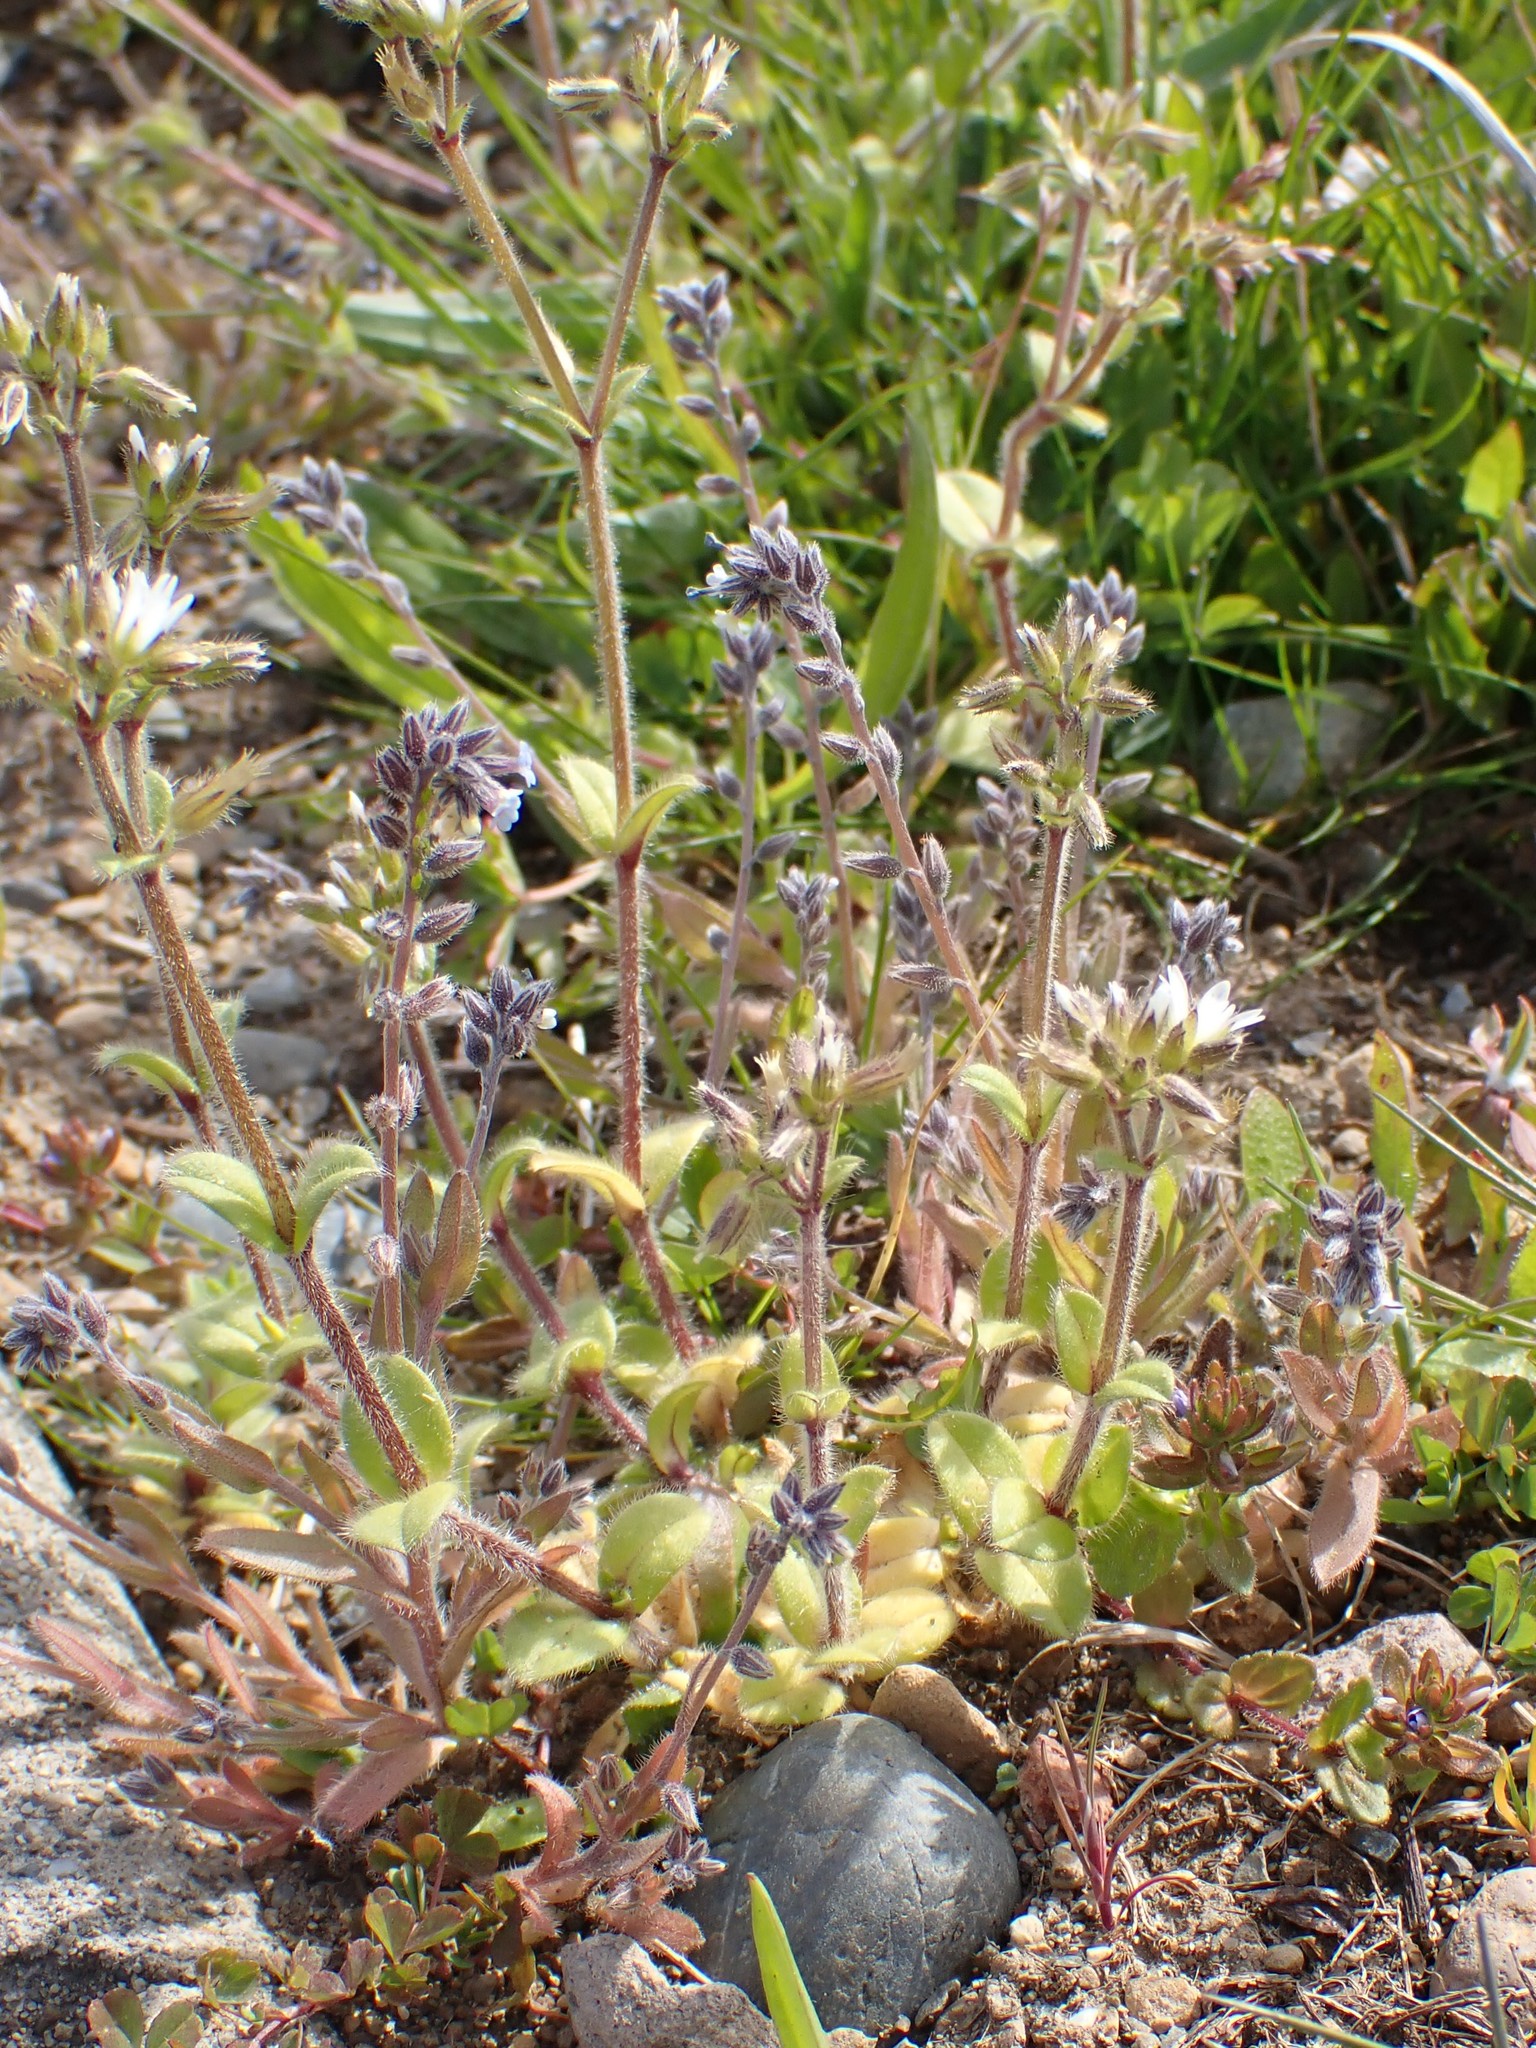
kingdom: Plantae
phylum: Tracheophyta
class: Magnoliopsida
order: Boraginales
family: Boraginaceae
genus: Myosotis
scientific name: Myosotis discolor
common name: Changing forget-me-not
